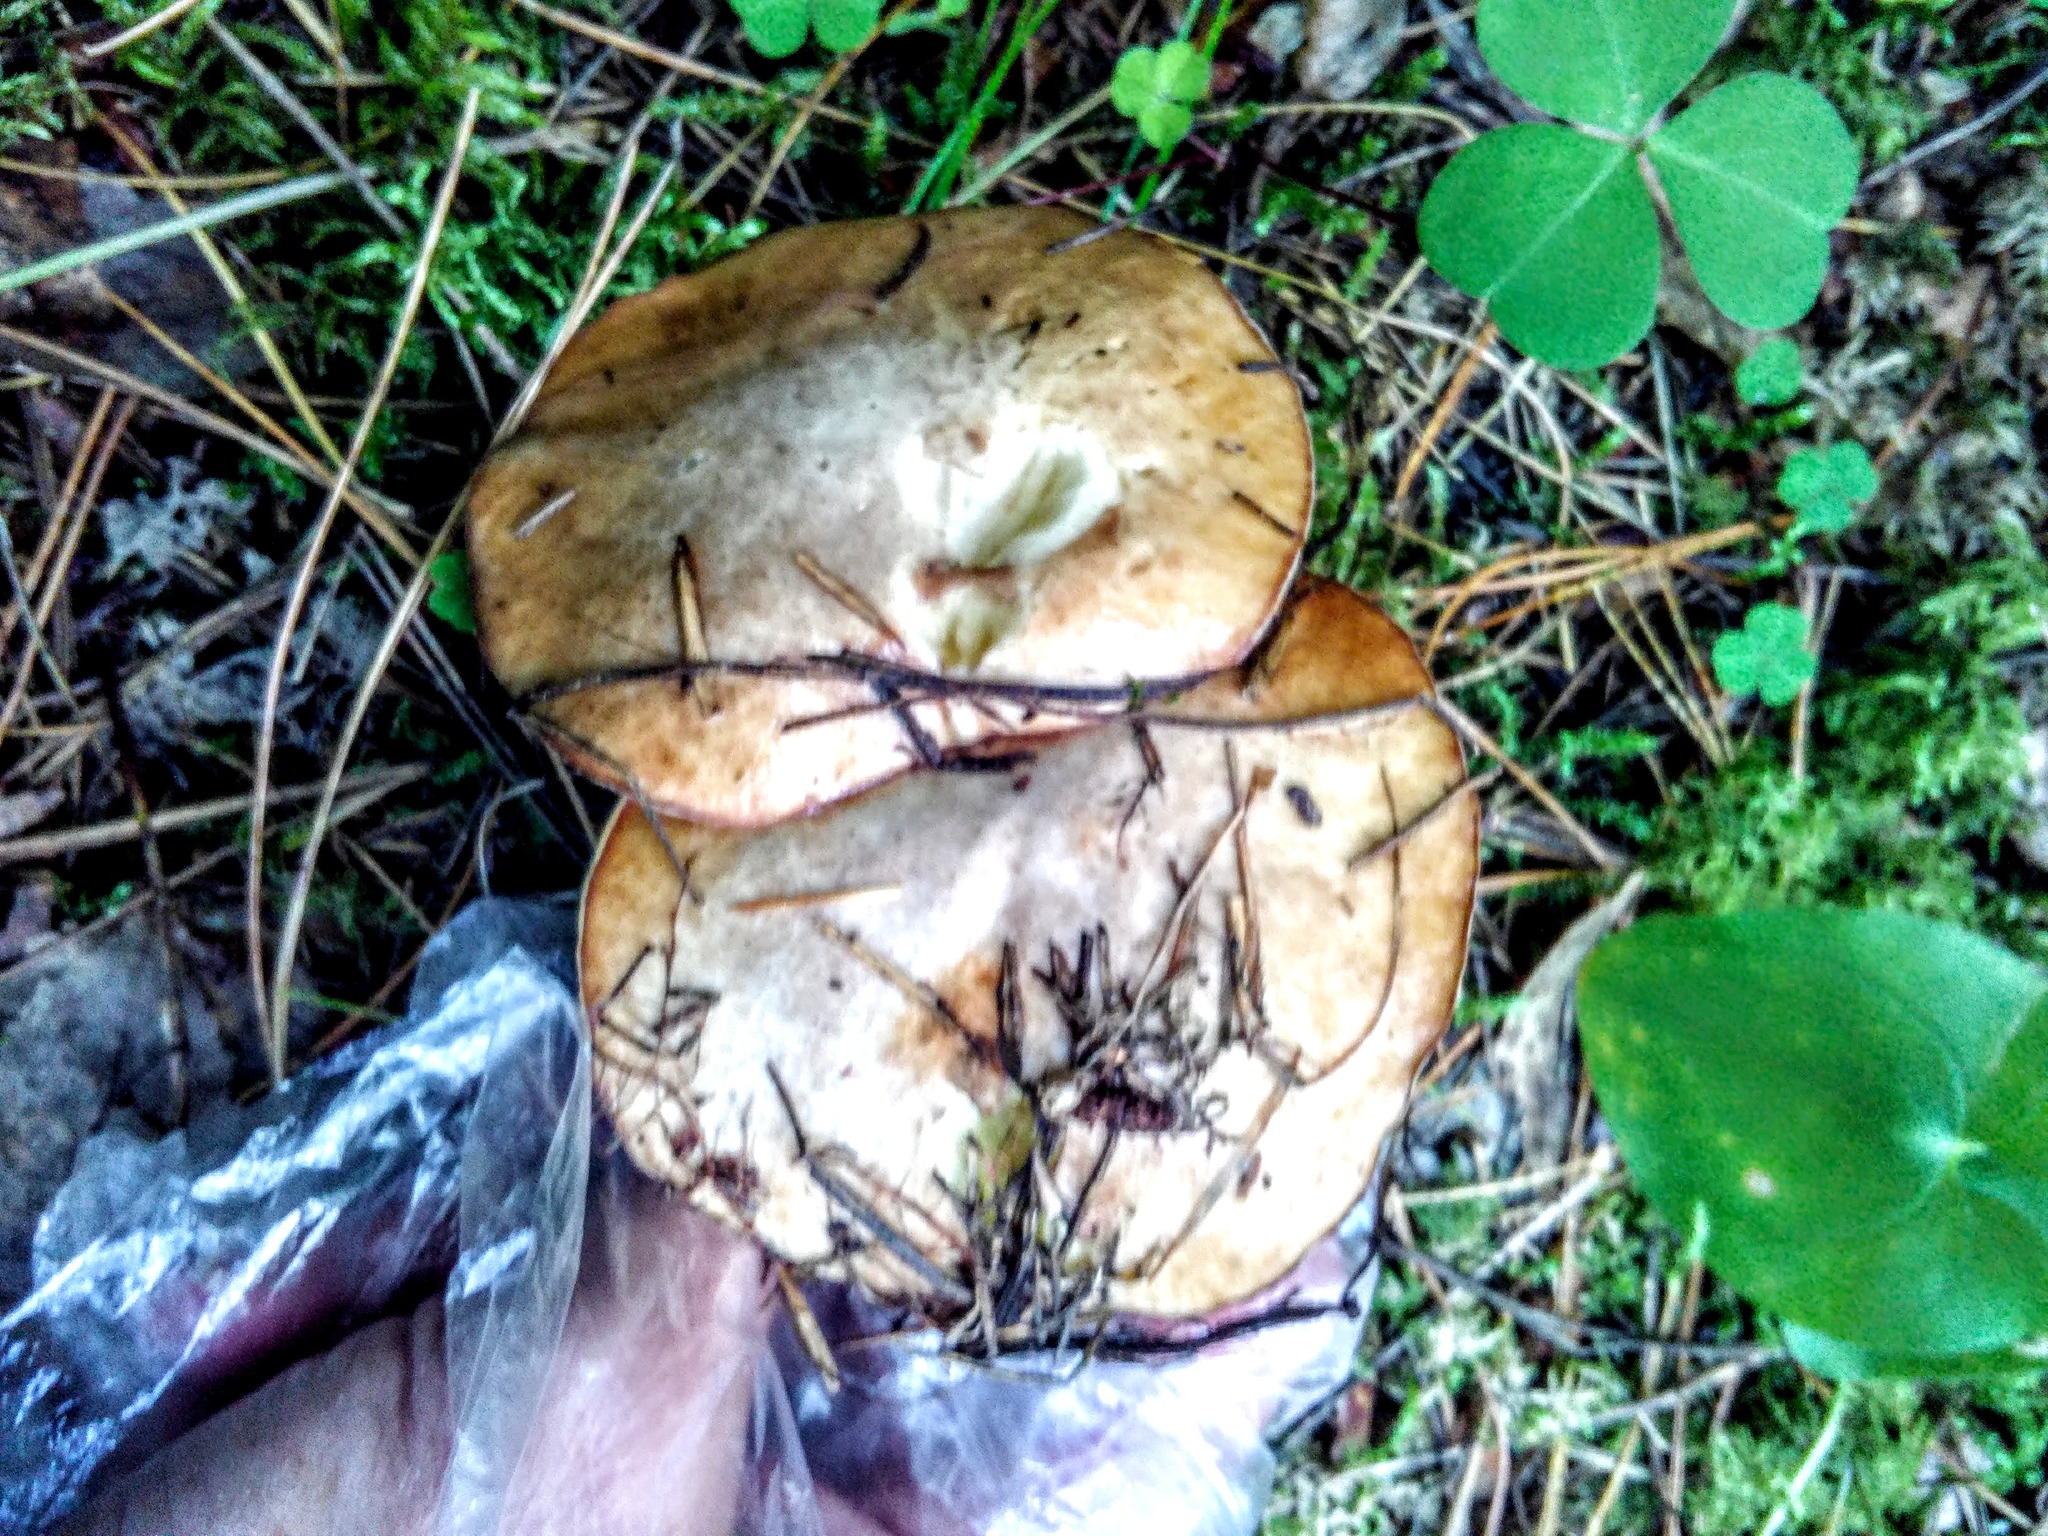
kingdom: Fungi
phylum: Basidiomycota
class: Agaricomycetes
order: Boletales
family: Suillaceae
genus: Suillus
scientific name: Suillus placidus
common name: Slippery white bolete
